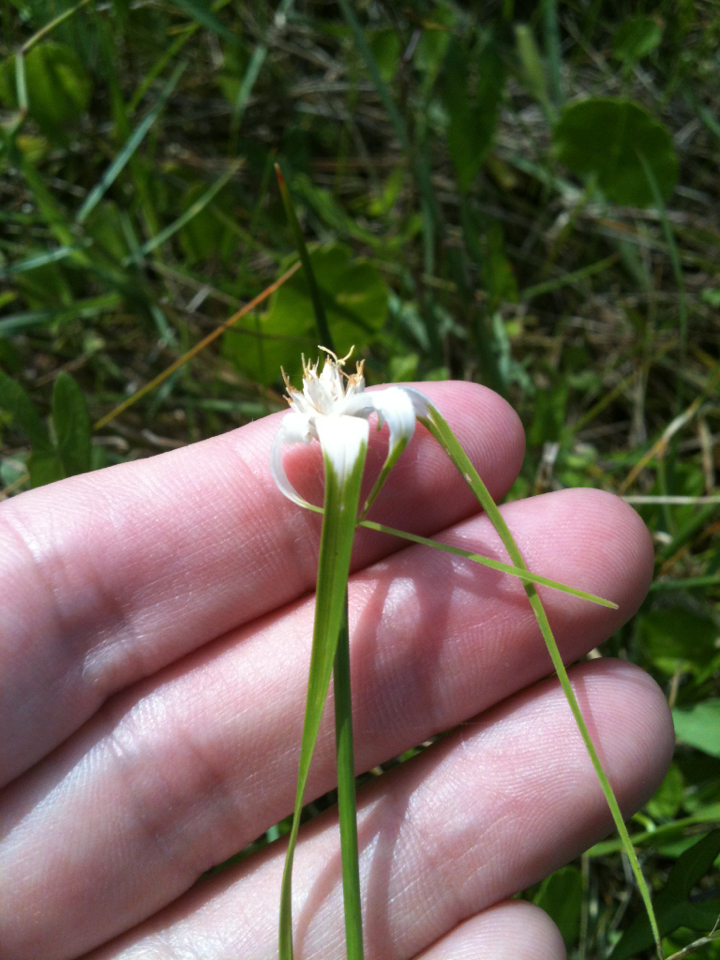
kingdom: Plantae
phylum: Tracheophyta
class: Liliopsida
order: Poales
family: Cyperaceae
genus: Rhynchospora
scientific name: Rhynchospora colorata
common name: Star sedge
